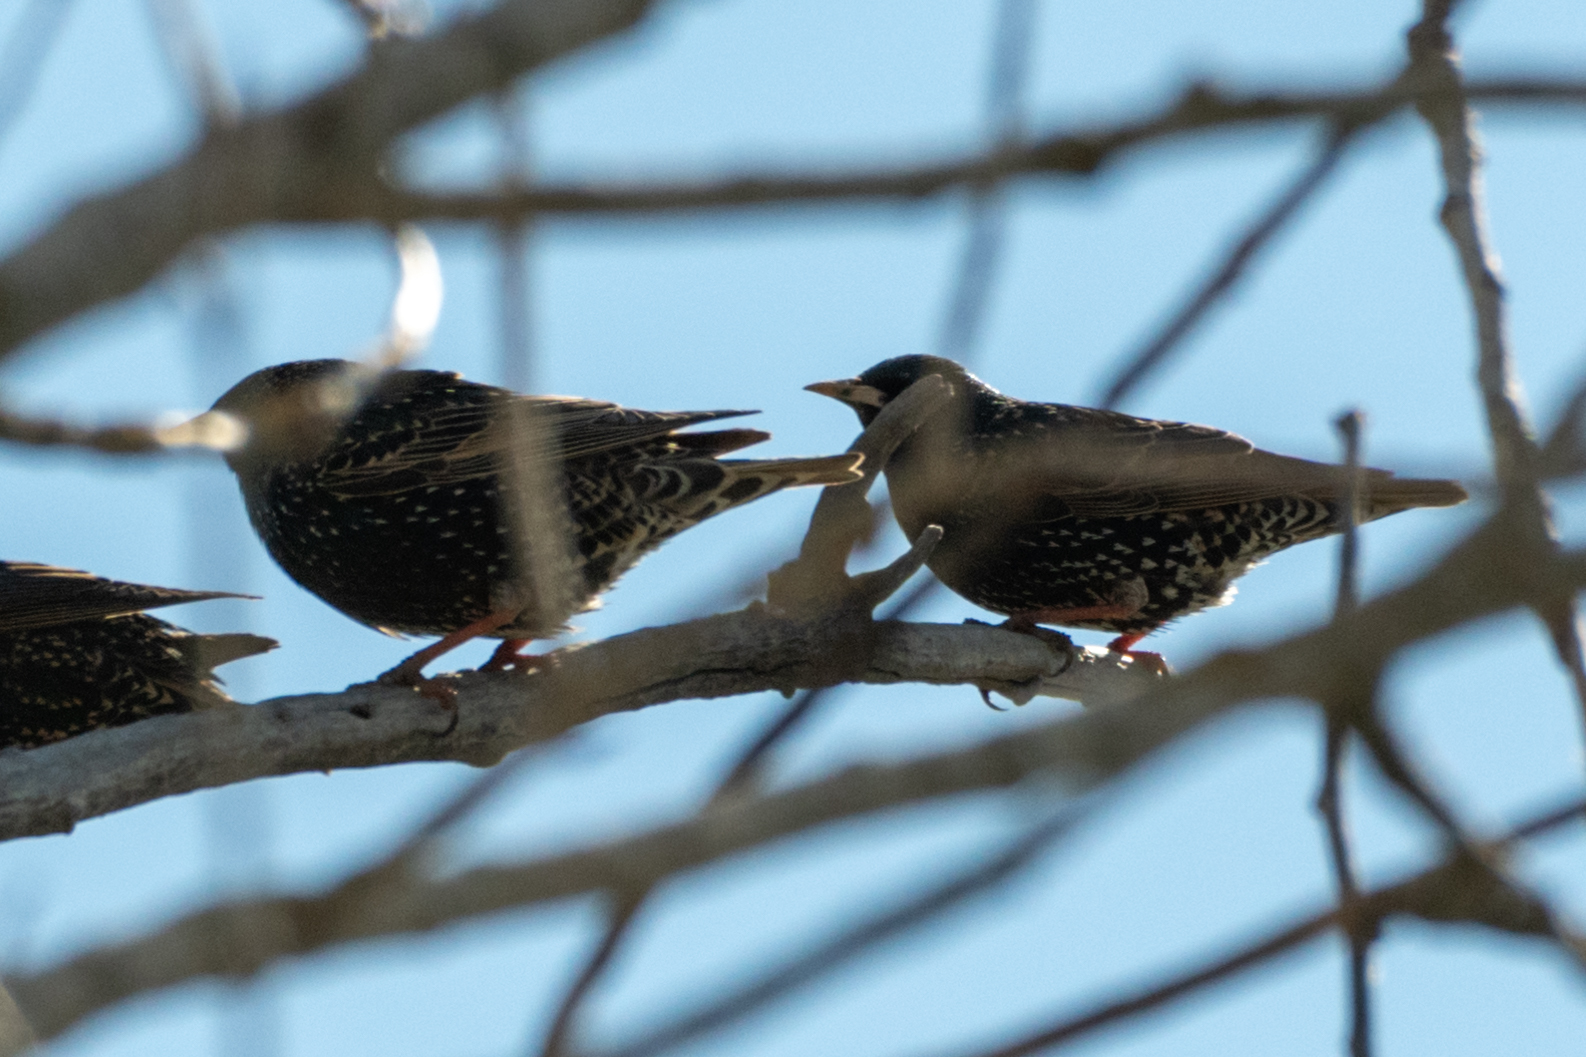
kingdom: Animalia
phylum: Chordata
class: Aves
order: Passeriformes
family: Sturnidae
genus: Sturnus
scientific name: Sturnus vulgaris
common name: Common starling
